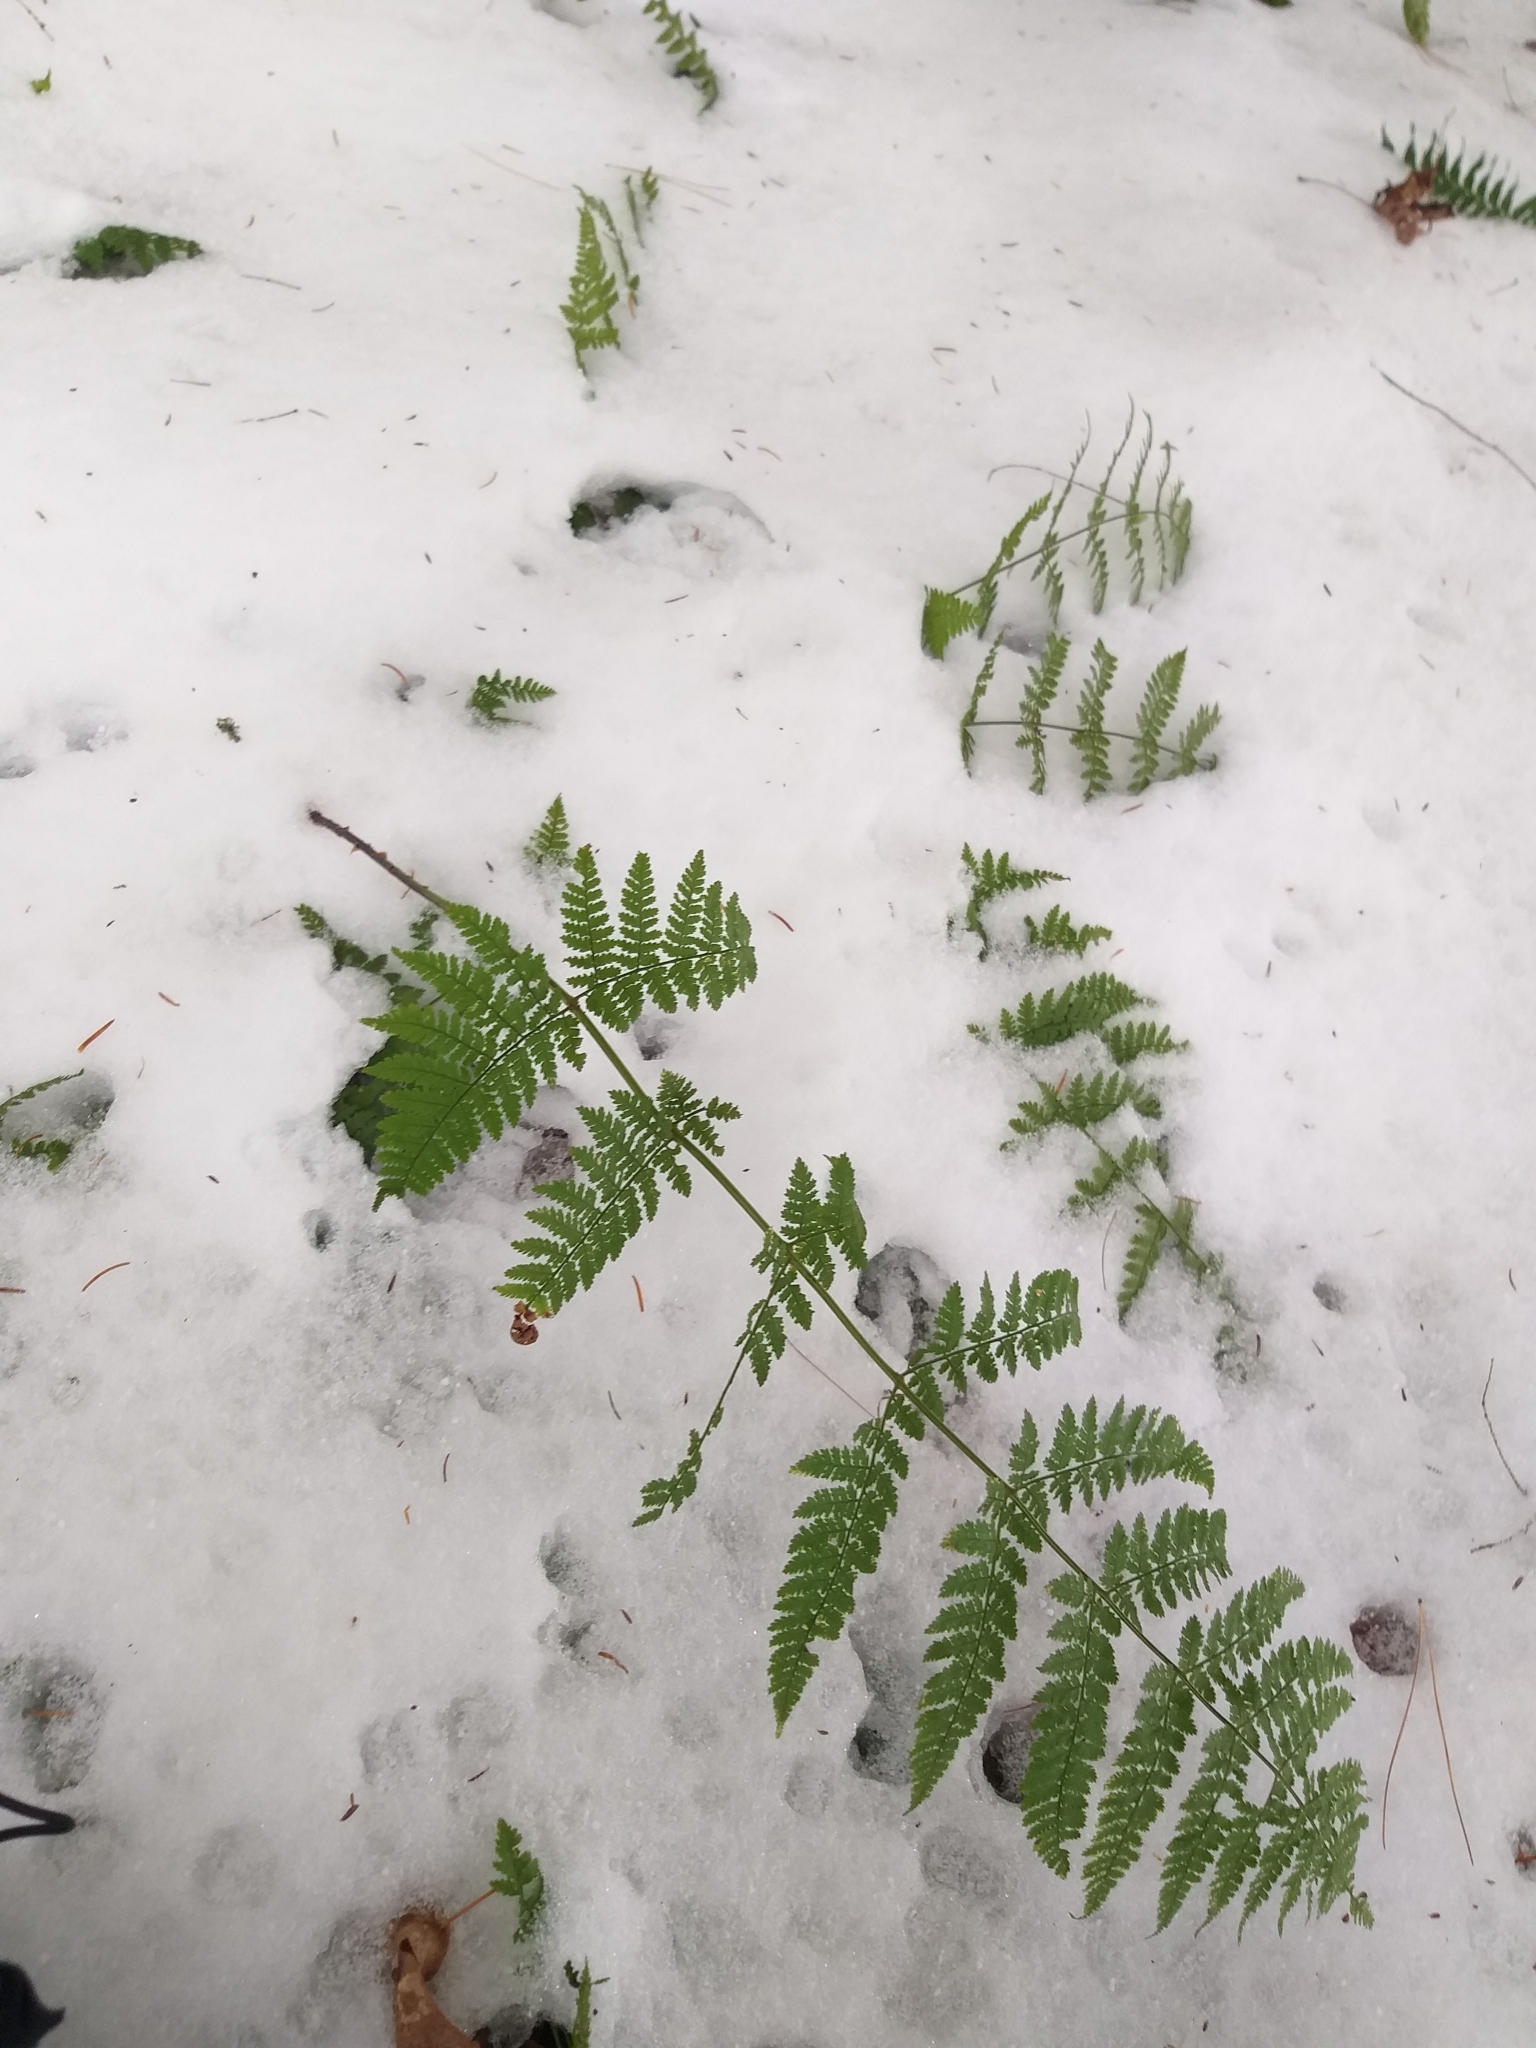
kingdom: Plantae
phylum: Tracheophyta
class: Polypodiopsida
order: Polypodiales
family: Dryopteridaceae
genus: Dryopteris
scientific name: Dryopteris intermedia
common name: Evergreen wood fern
